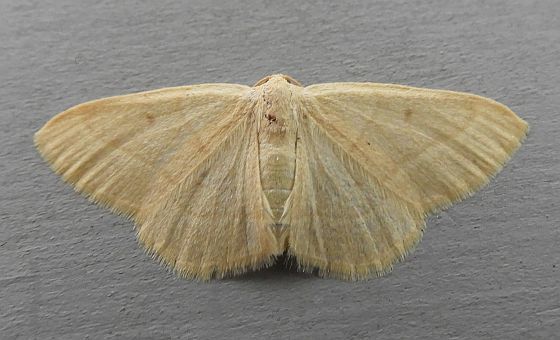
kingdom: Animalia
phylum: Arthropoda
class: Insecta
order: Lepidoptera
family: Geometridae
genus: Sperrya
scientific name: Sperrya cervula
